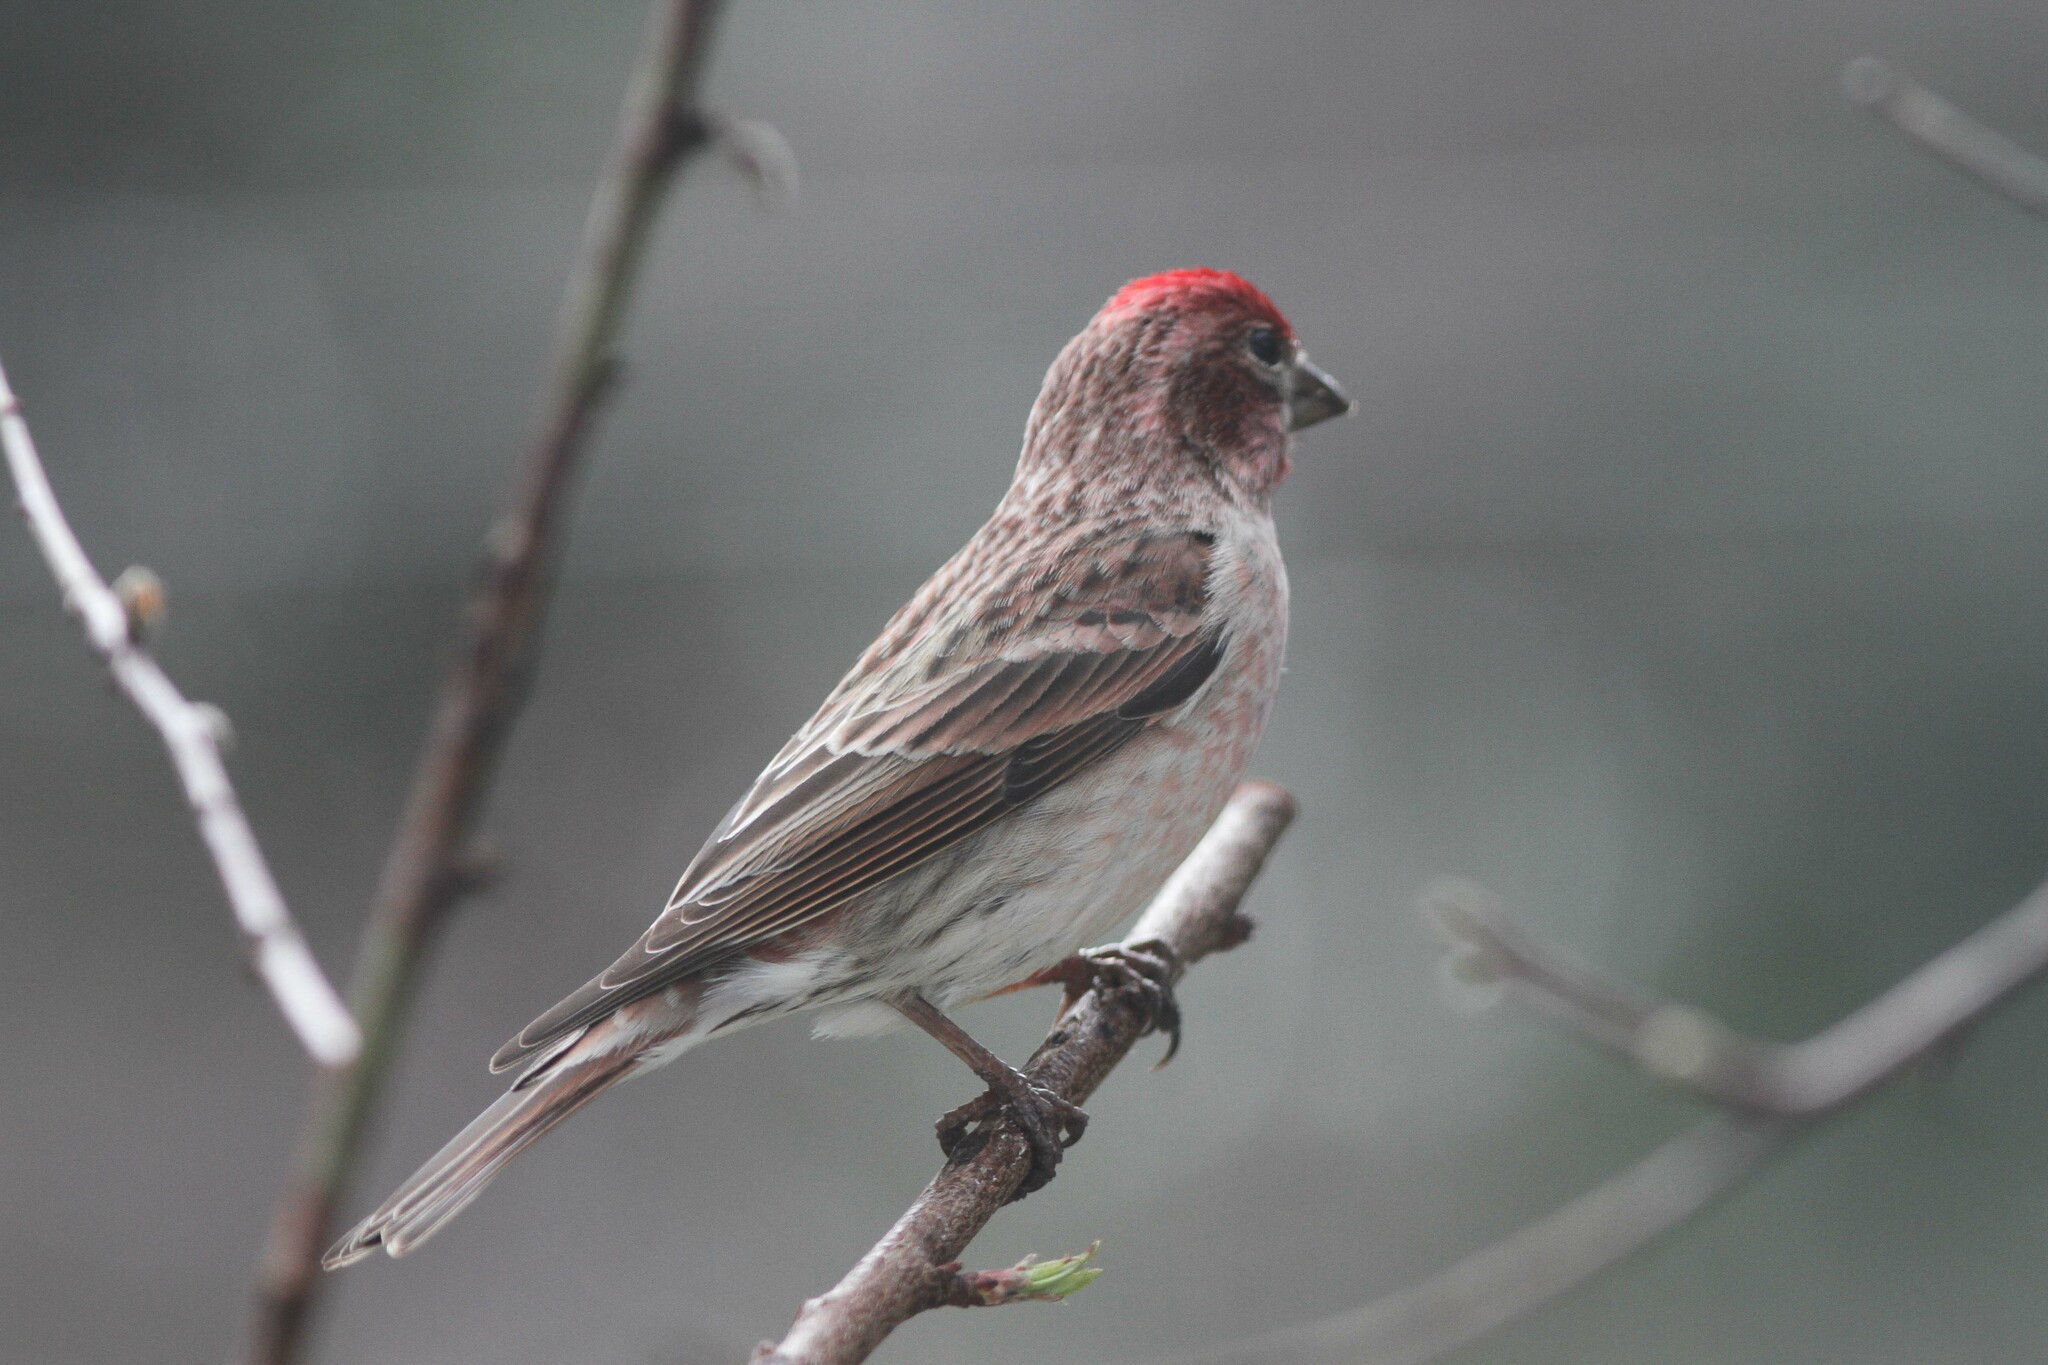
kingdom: Animalia
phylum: Chordata
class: Aves
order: Passeriformes
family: Fringillidae
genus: Haemorhous
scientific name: Haemorhous cassinii
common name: Cassin's finch
